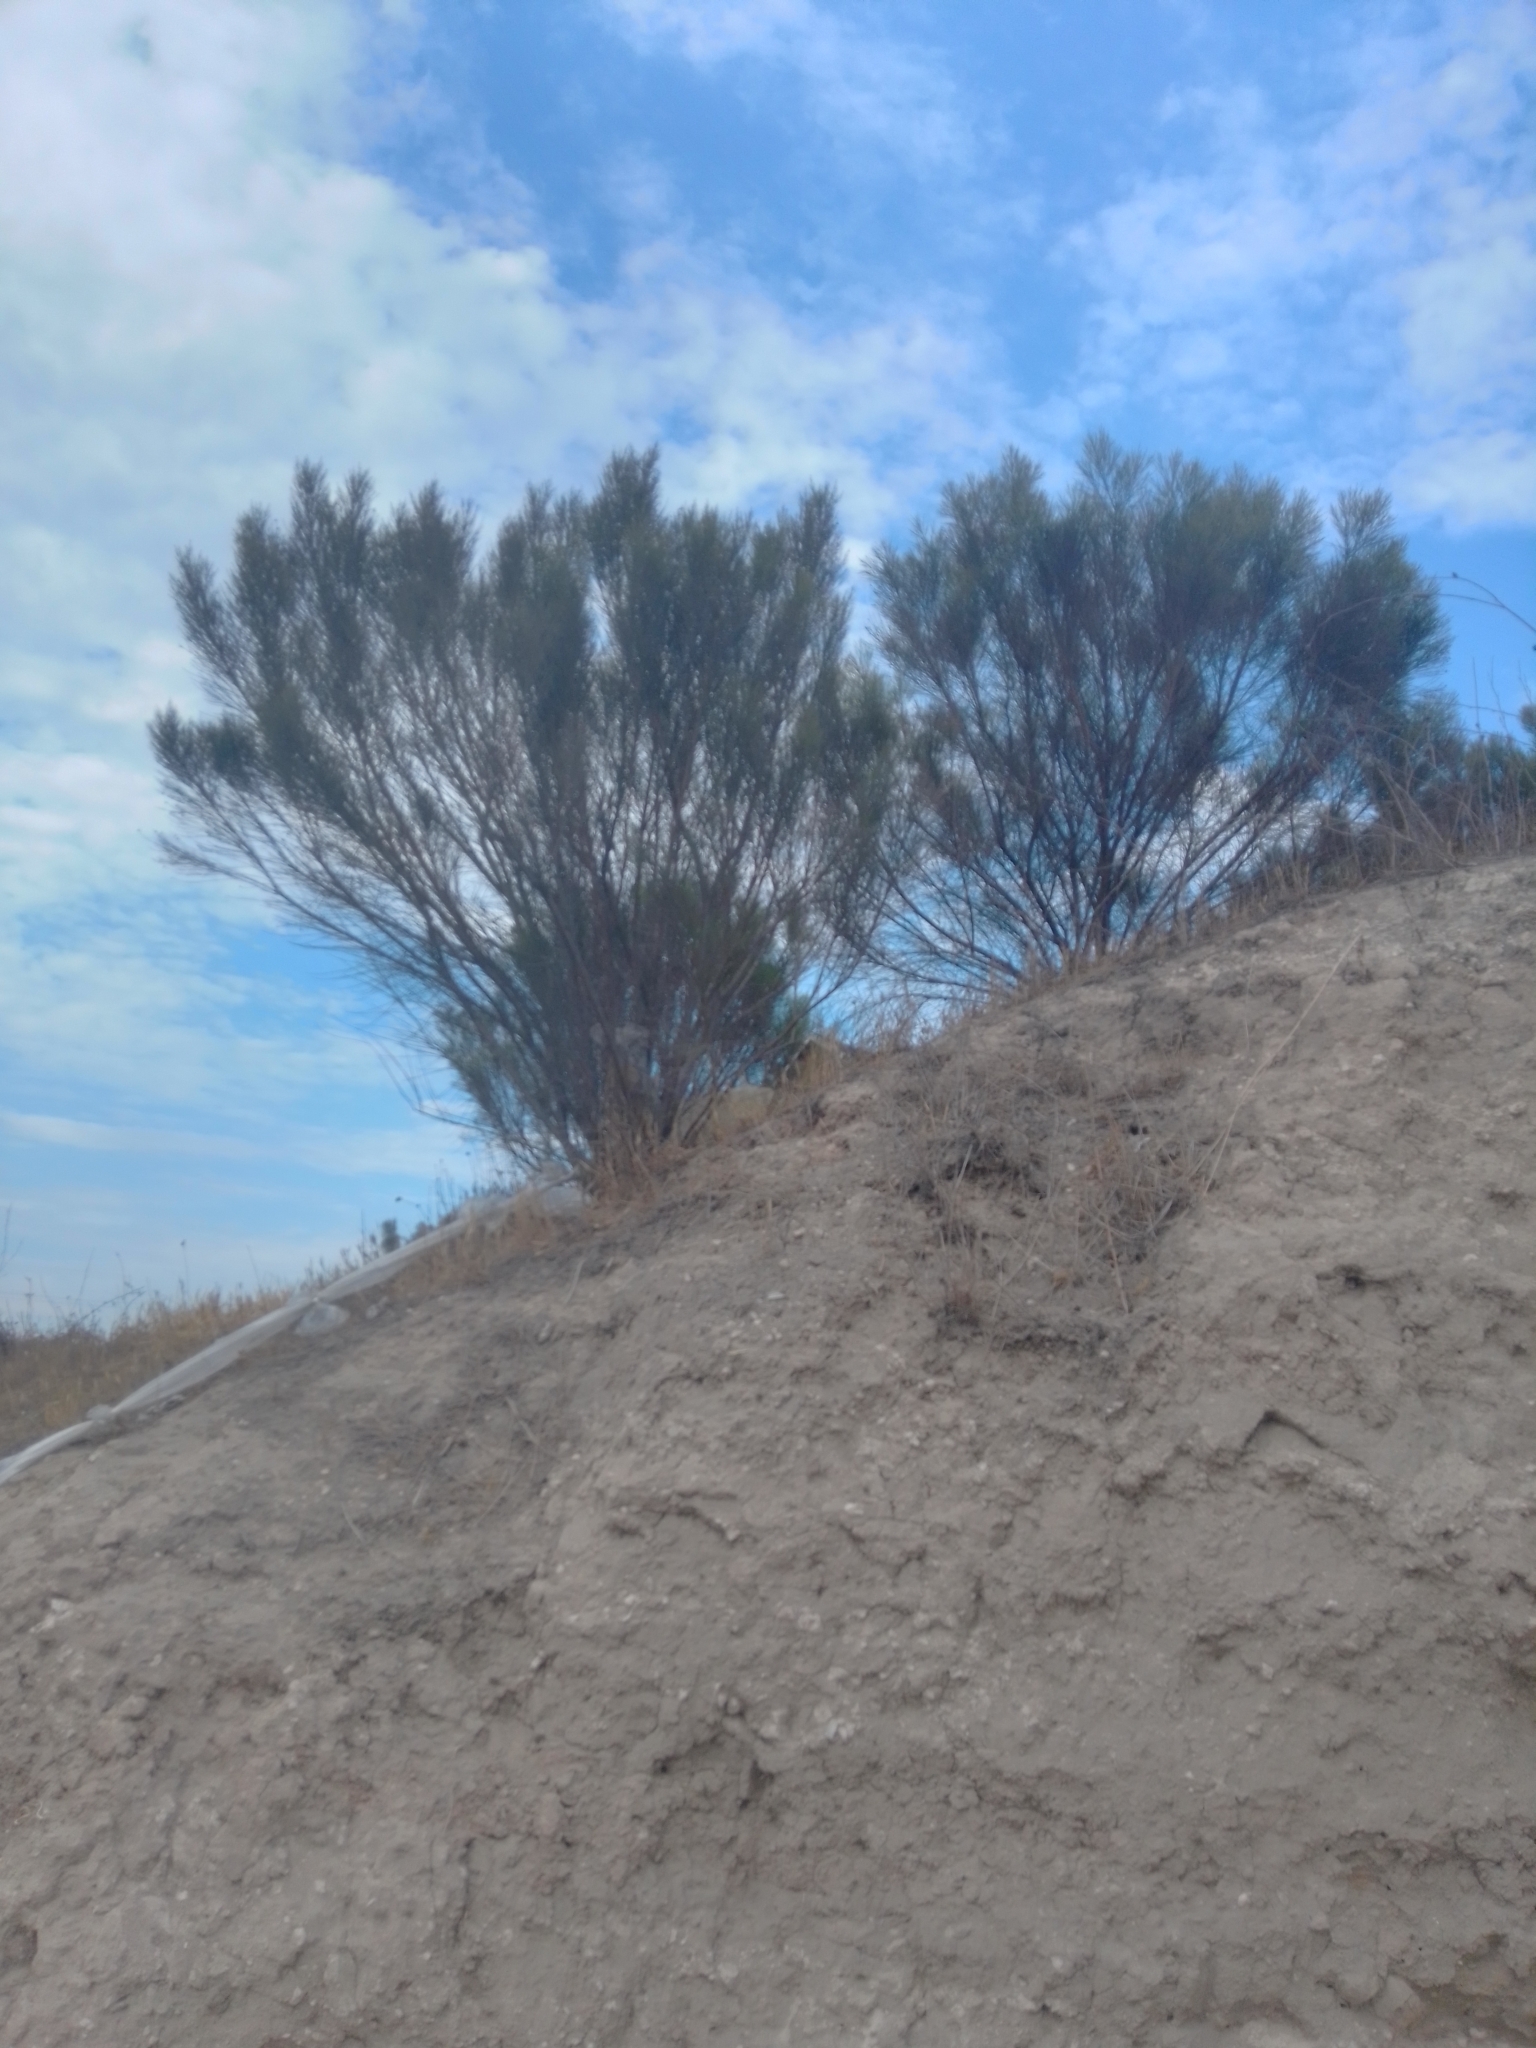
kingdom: Plantae
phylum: Tracheophyta
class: Magnoliopsida
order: Asterales
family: Asteraceae
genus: Baccharis
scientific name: Baccharis sarothroides
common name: Desert-broom
